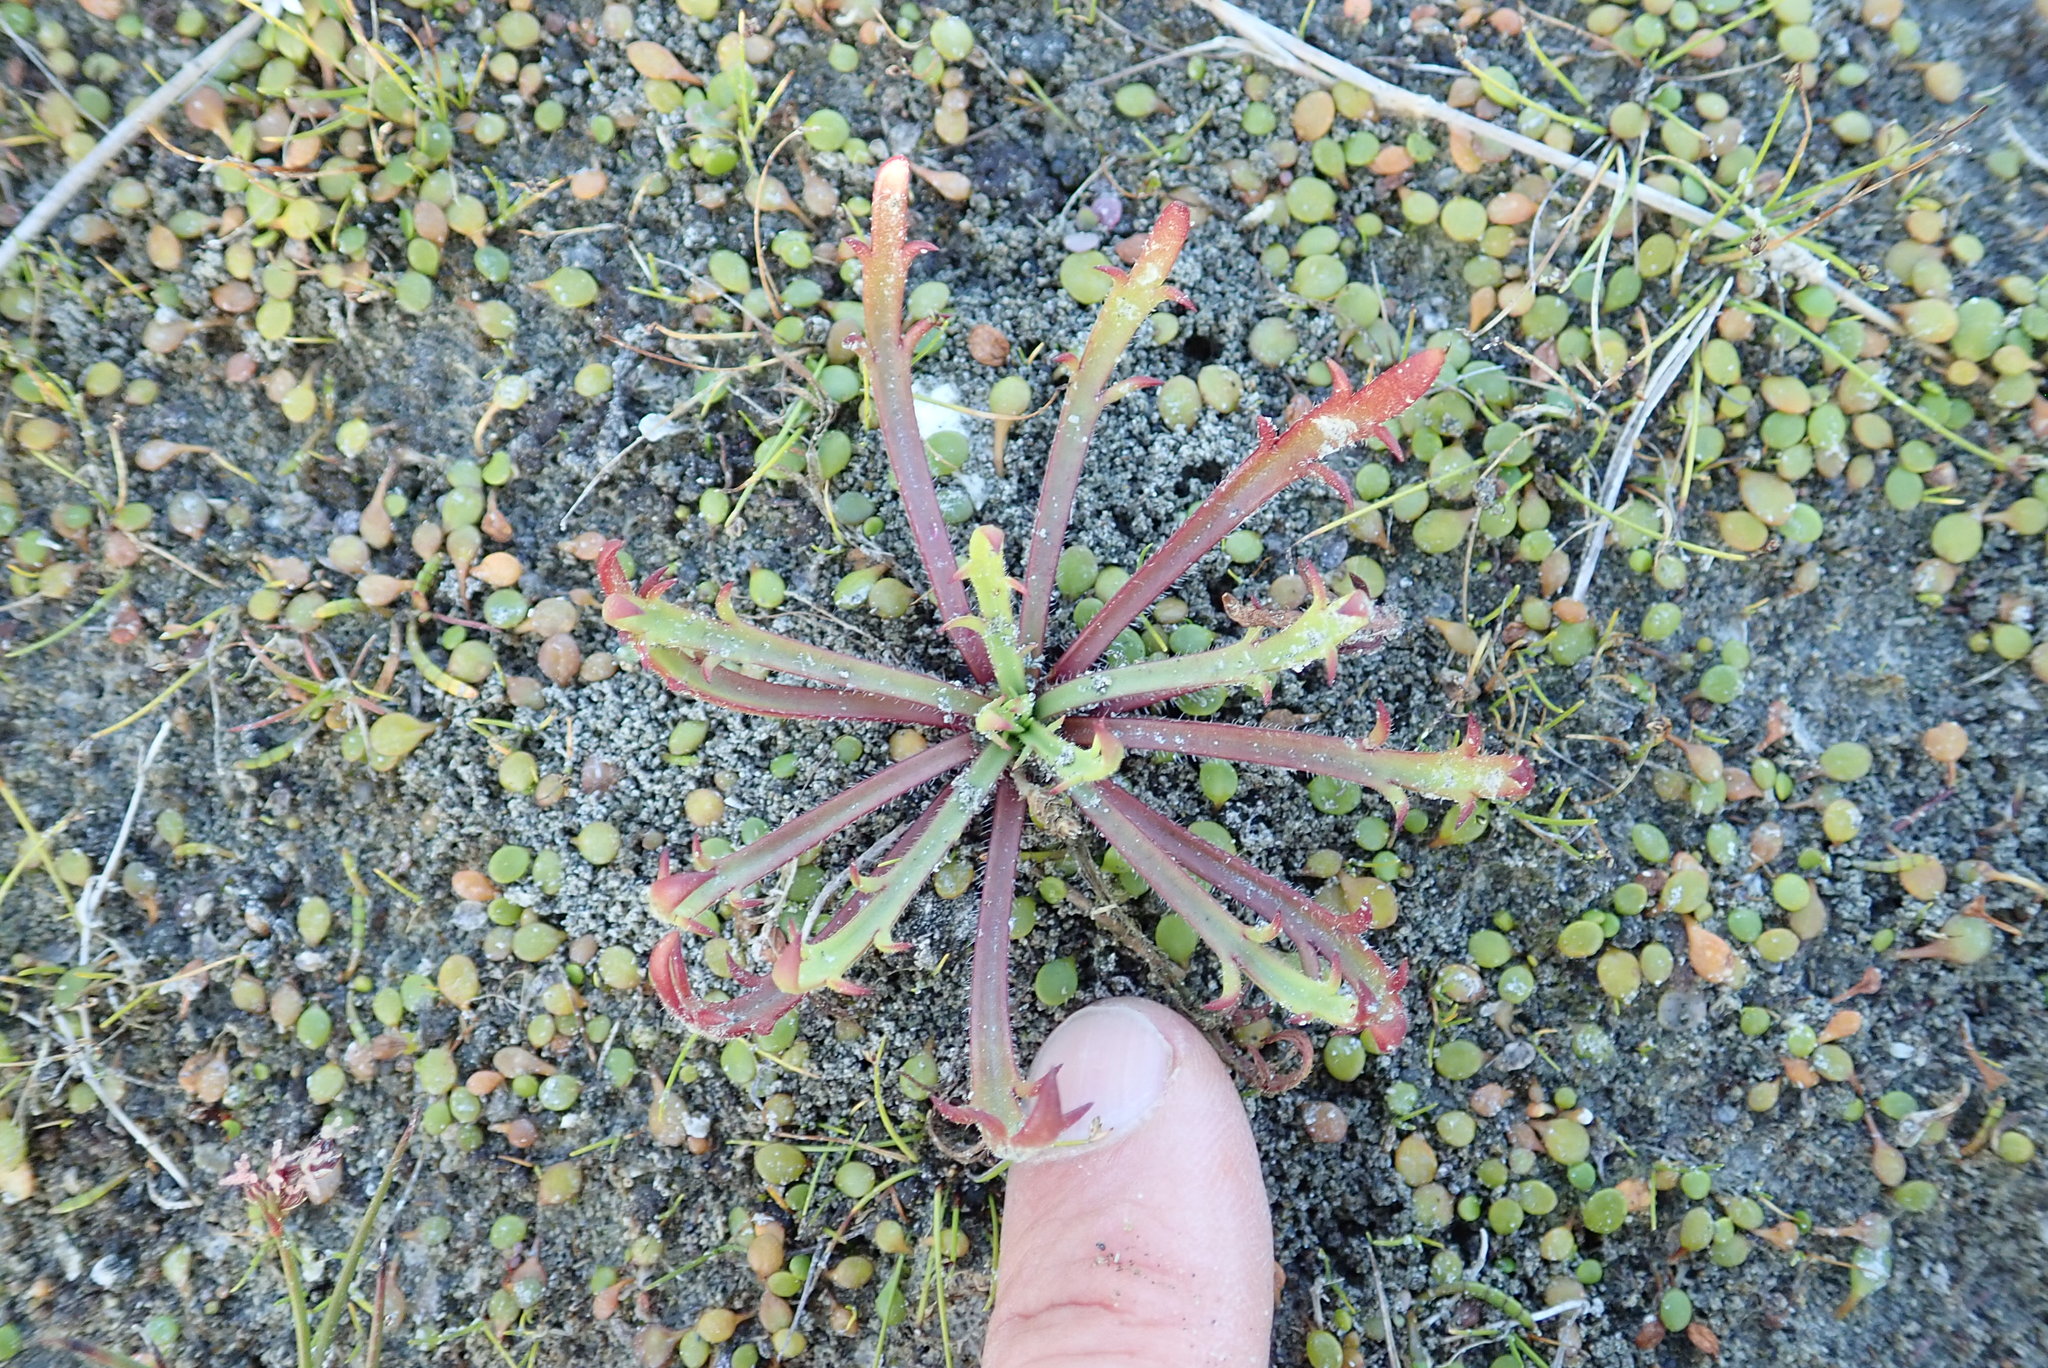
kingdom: Plantae
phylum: Tracheophyta
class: Magnoliopsida
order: Lamiales
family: Plantaginaceae
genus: Plantago
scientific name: Plantago coronopus
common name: Buck's-horn plantain
